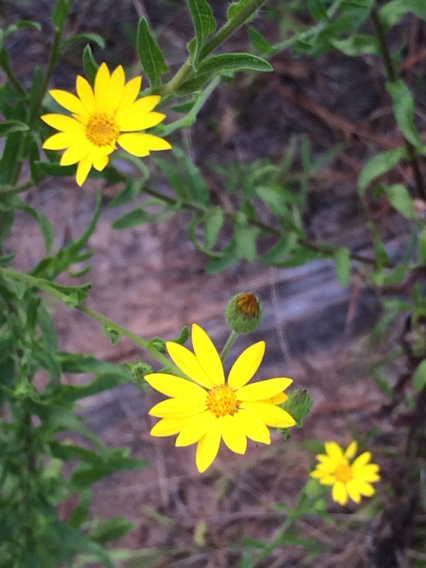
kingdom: Plantae
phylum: Tracheophyta
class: Magnoliopsida
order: Asterales
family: Asteraceae
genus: Bradburia
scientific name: Bradburia pilosa
